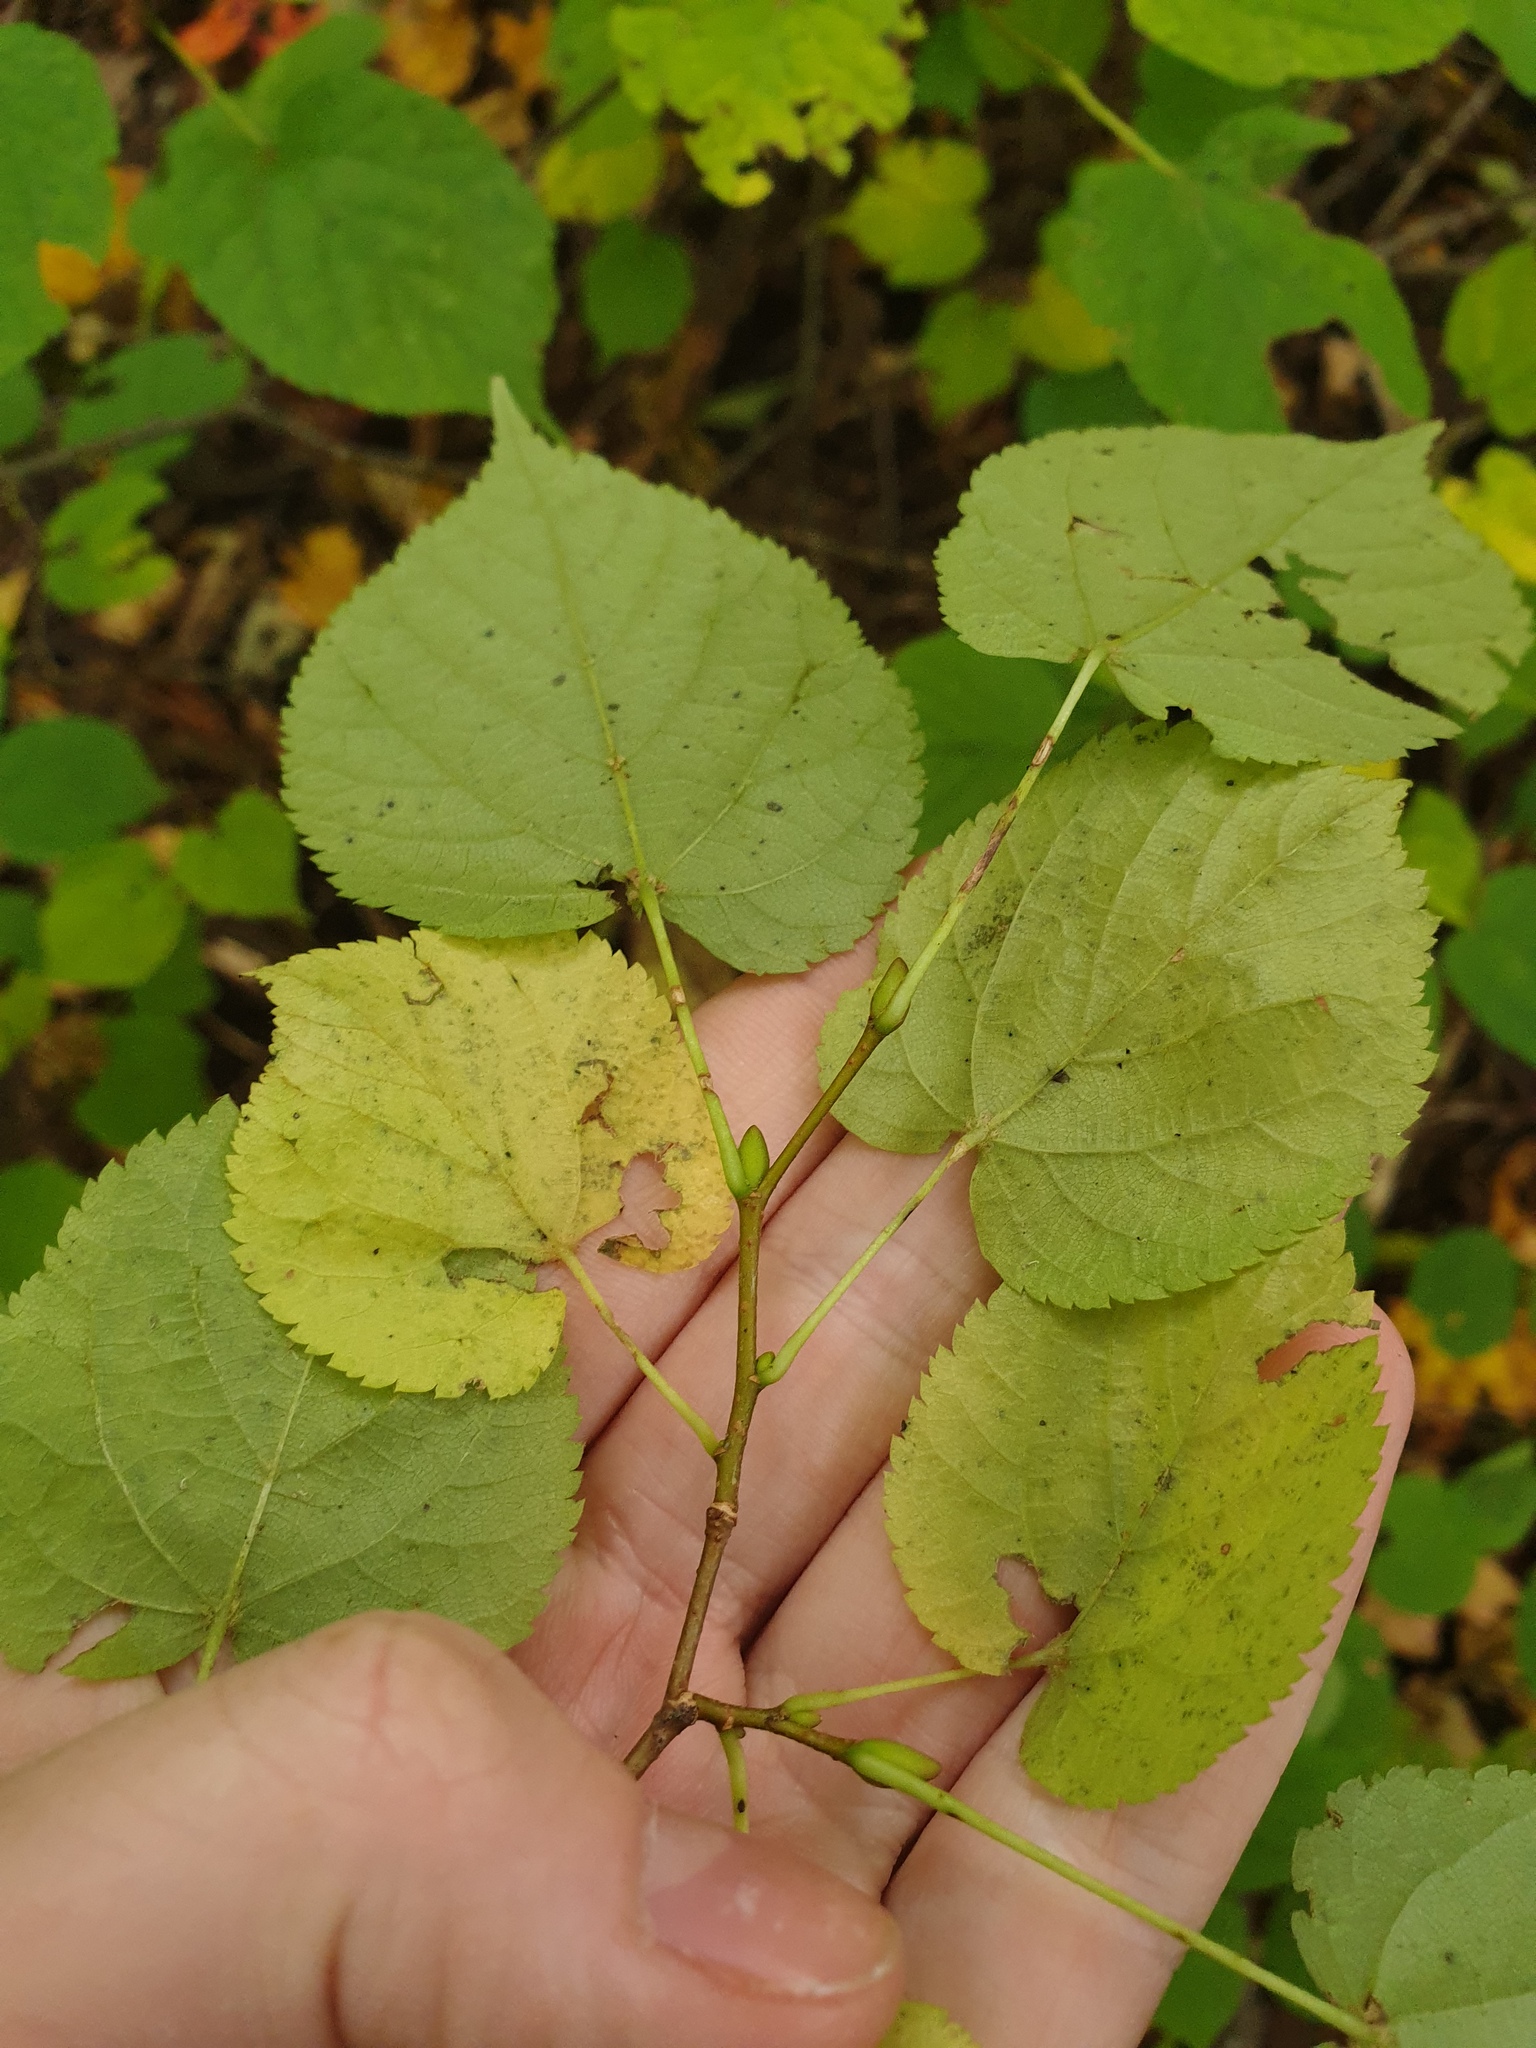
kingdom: Plantae
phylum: Tracheophyta
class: Magnoliopsida
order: Malvales
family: Malvaceae
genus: Tilia
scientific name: Tilia cordata
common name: Small-leaved lime
